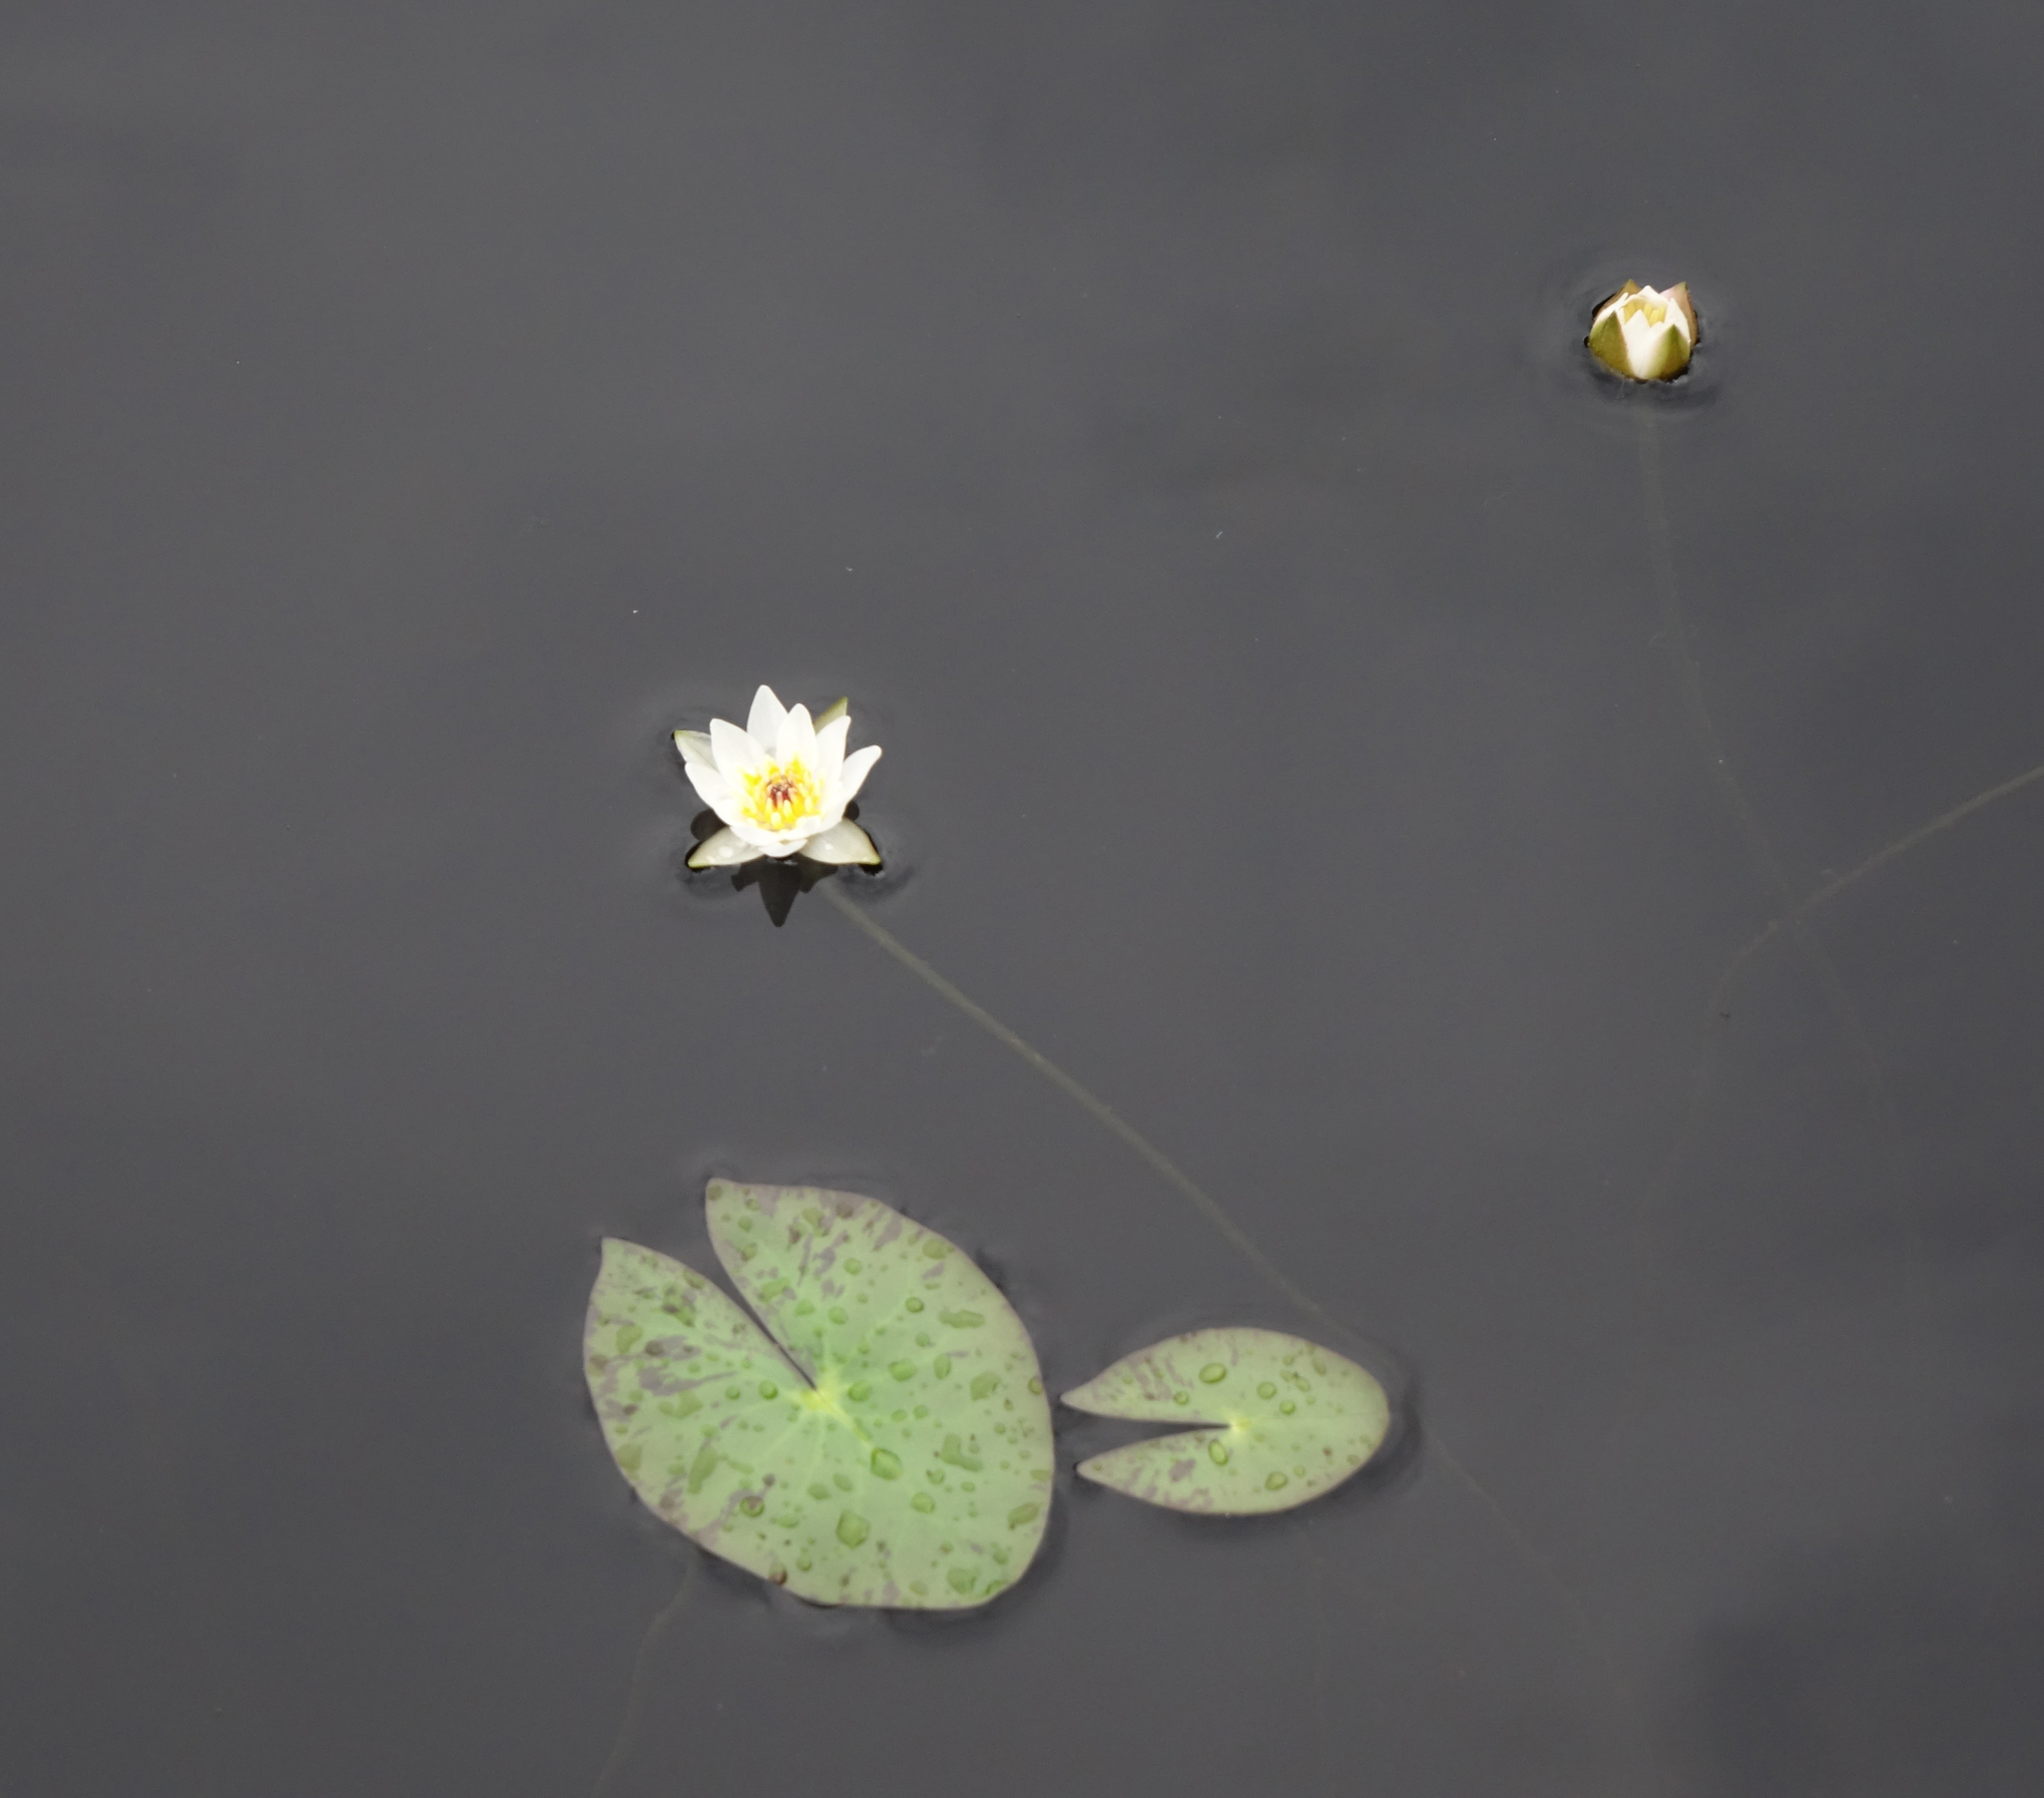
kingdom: Plantae
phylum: Tracheophyta
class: Magnoliopsida
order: Nymphaeales
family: Nymphaeaceae
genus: Nymphaea
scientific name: Nymphaea tetragona
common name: Pygmy water-lily
